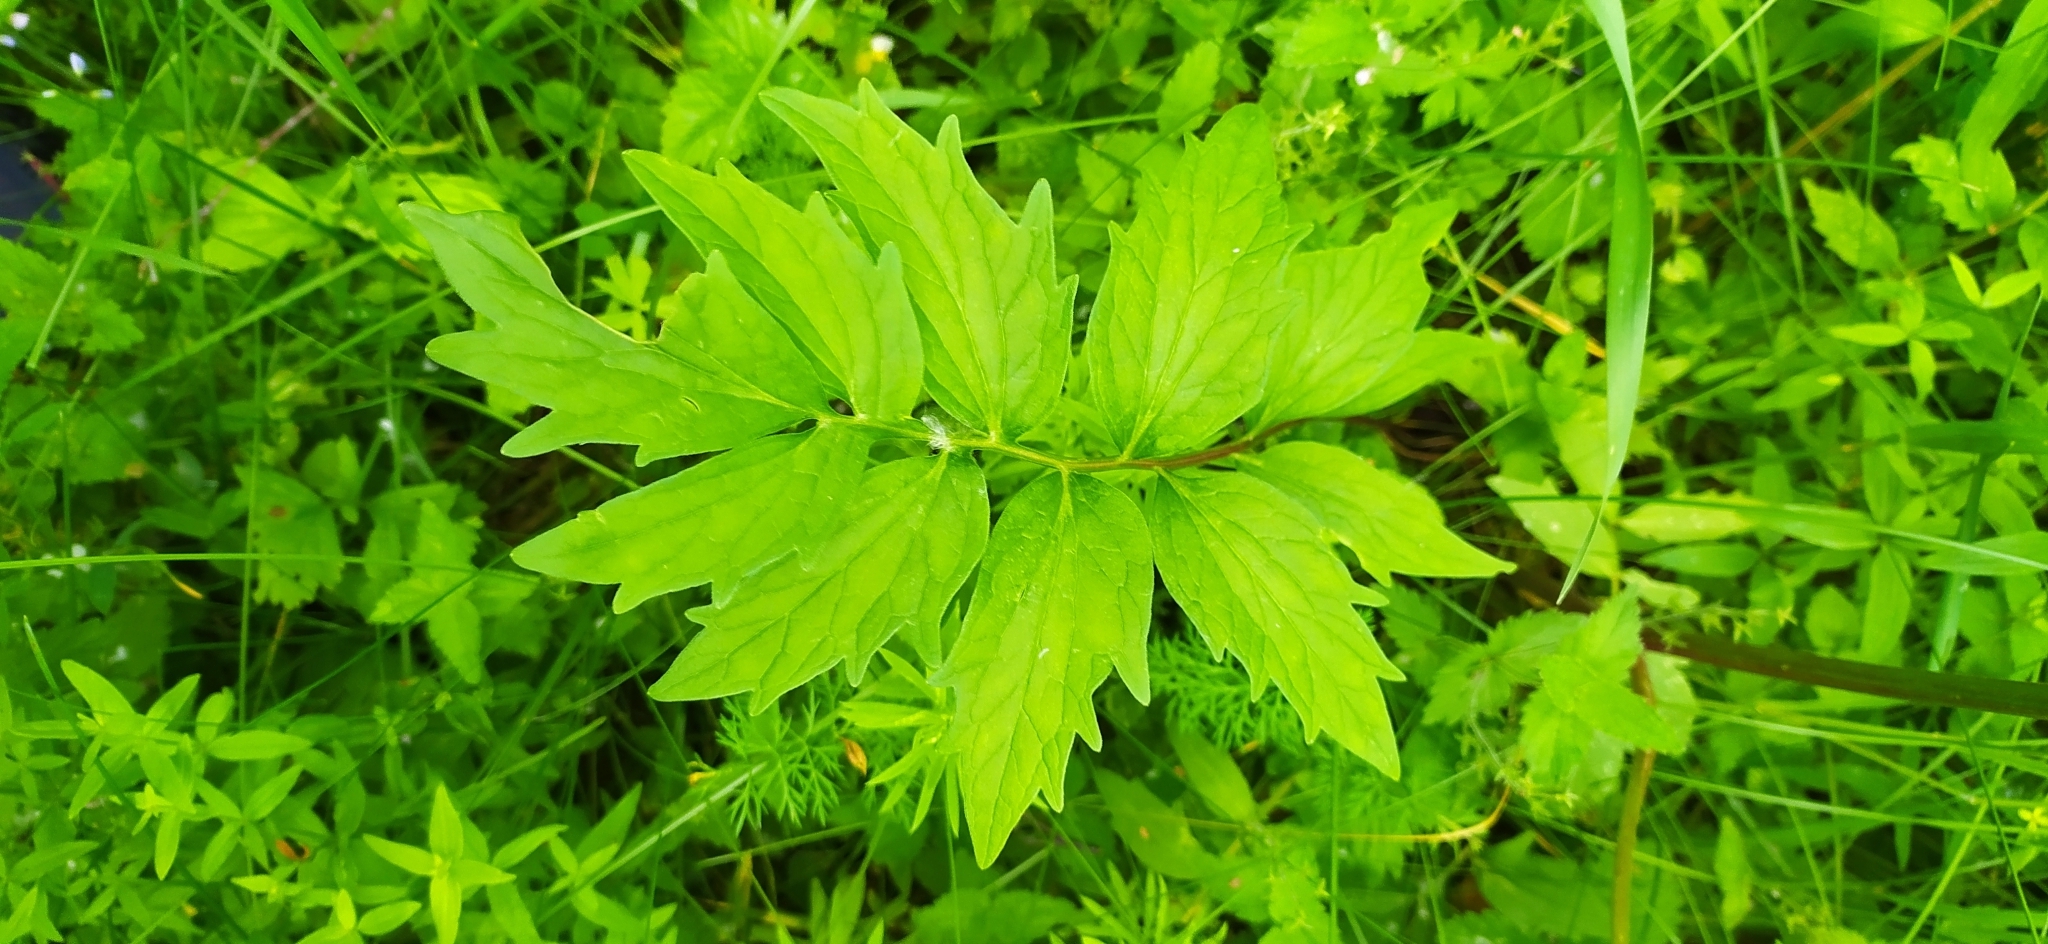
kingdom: Plantae
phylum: Tracheophyta
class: Magnoliopsida
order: Dipsacales
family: Caprifoliaceae
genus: Valeriana
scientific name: Valeriana wolgensis
